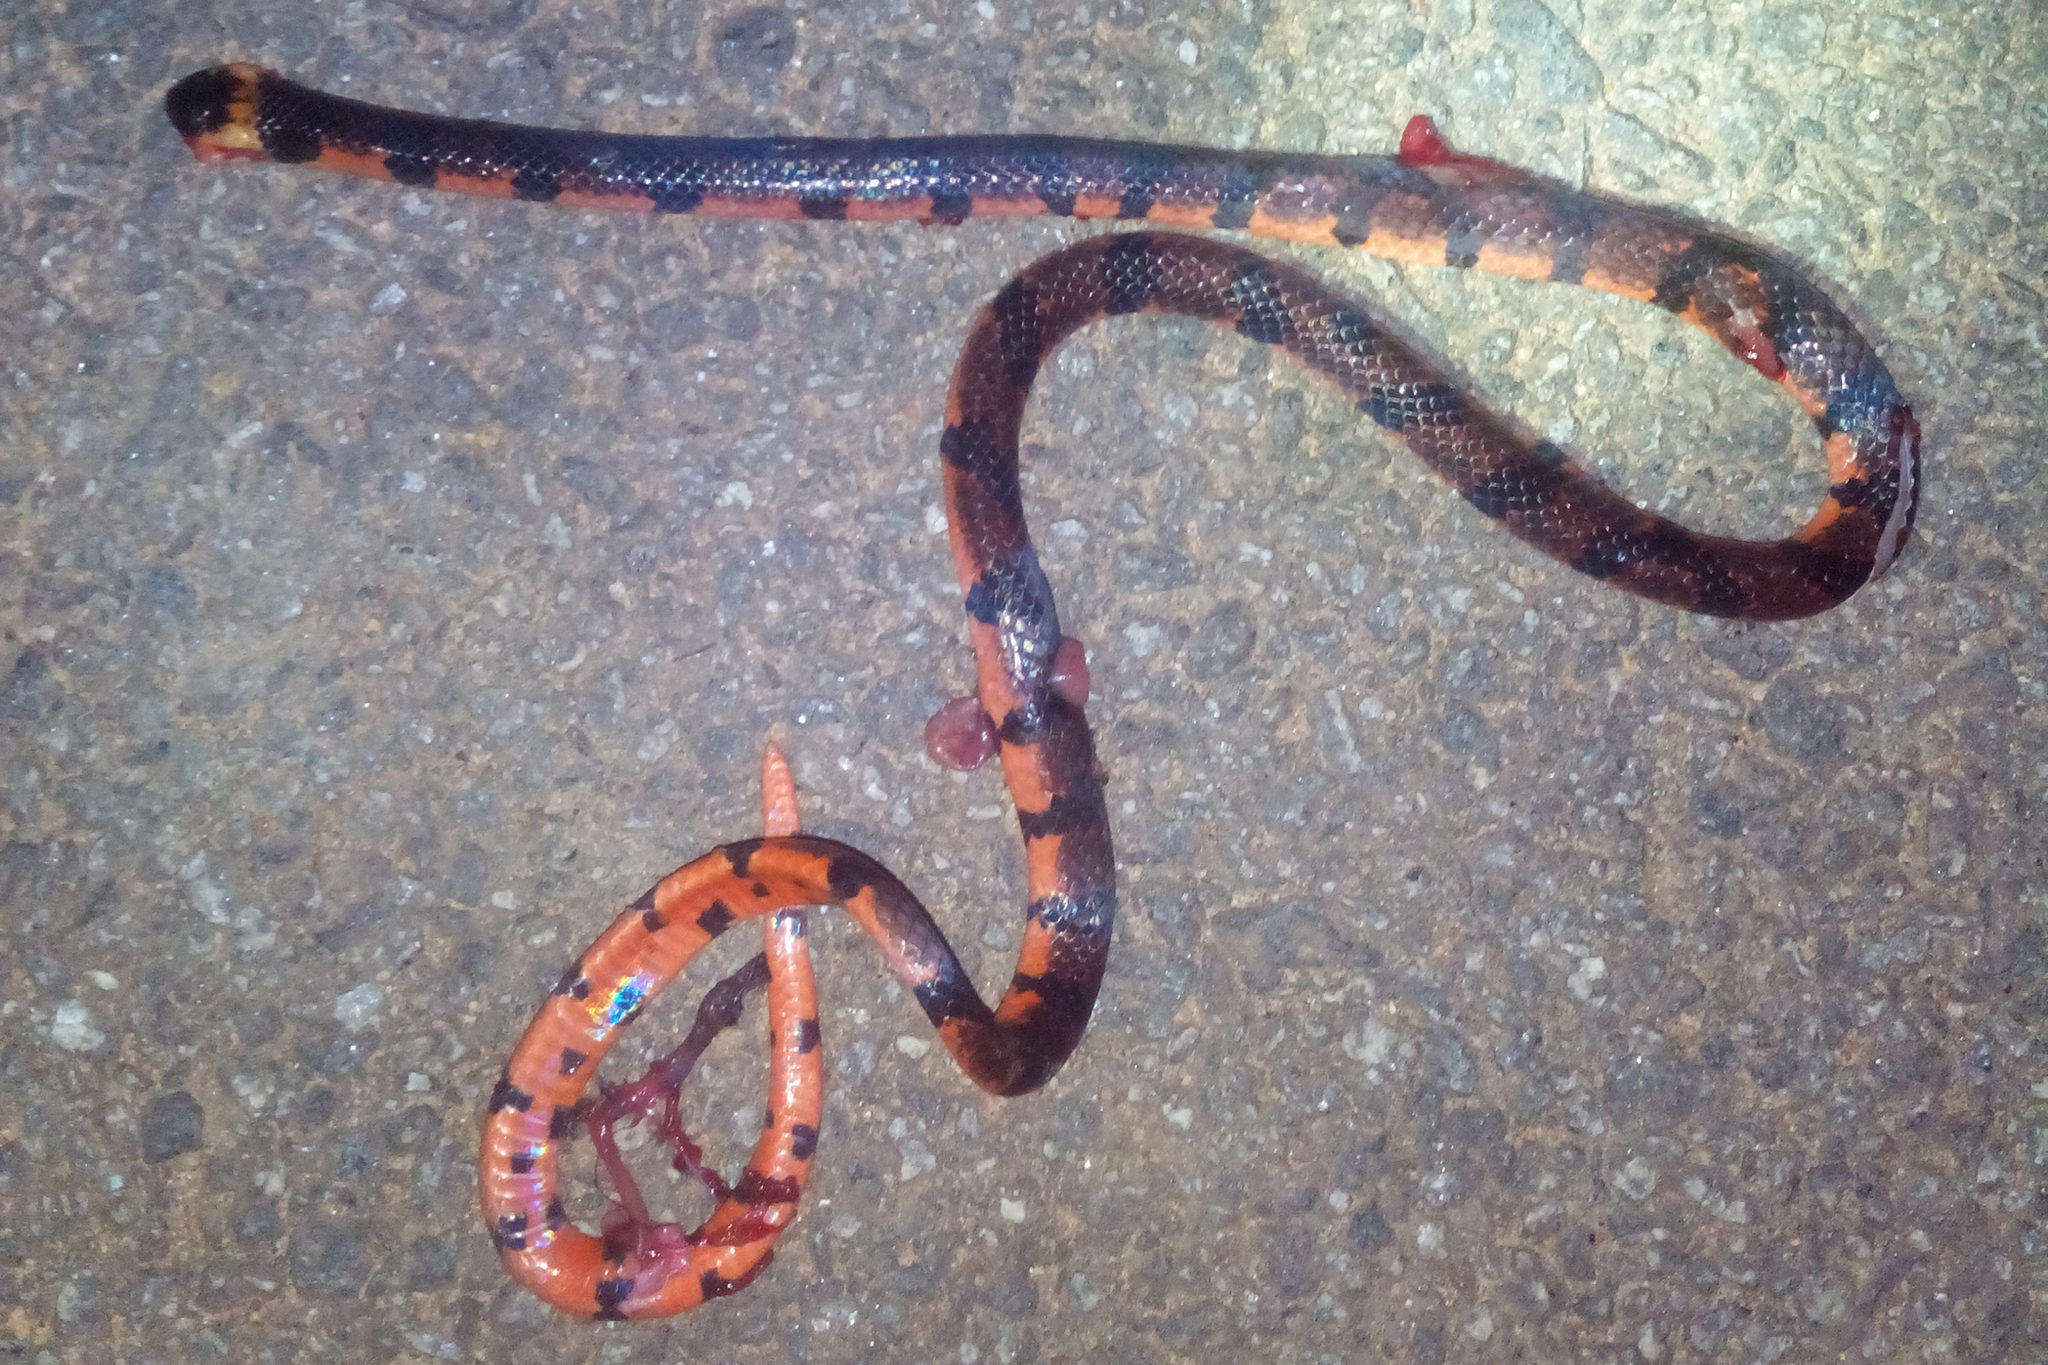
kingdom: Animalia
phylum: Chordata
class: Squamata
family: Elapidae
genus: Calliophis
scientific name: Calliophis bibroni
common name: Bibron's coral snake
